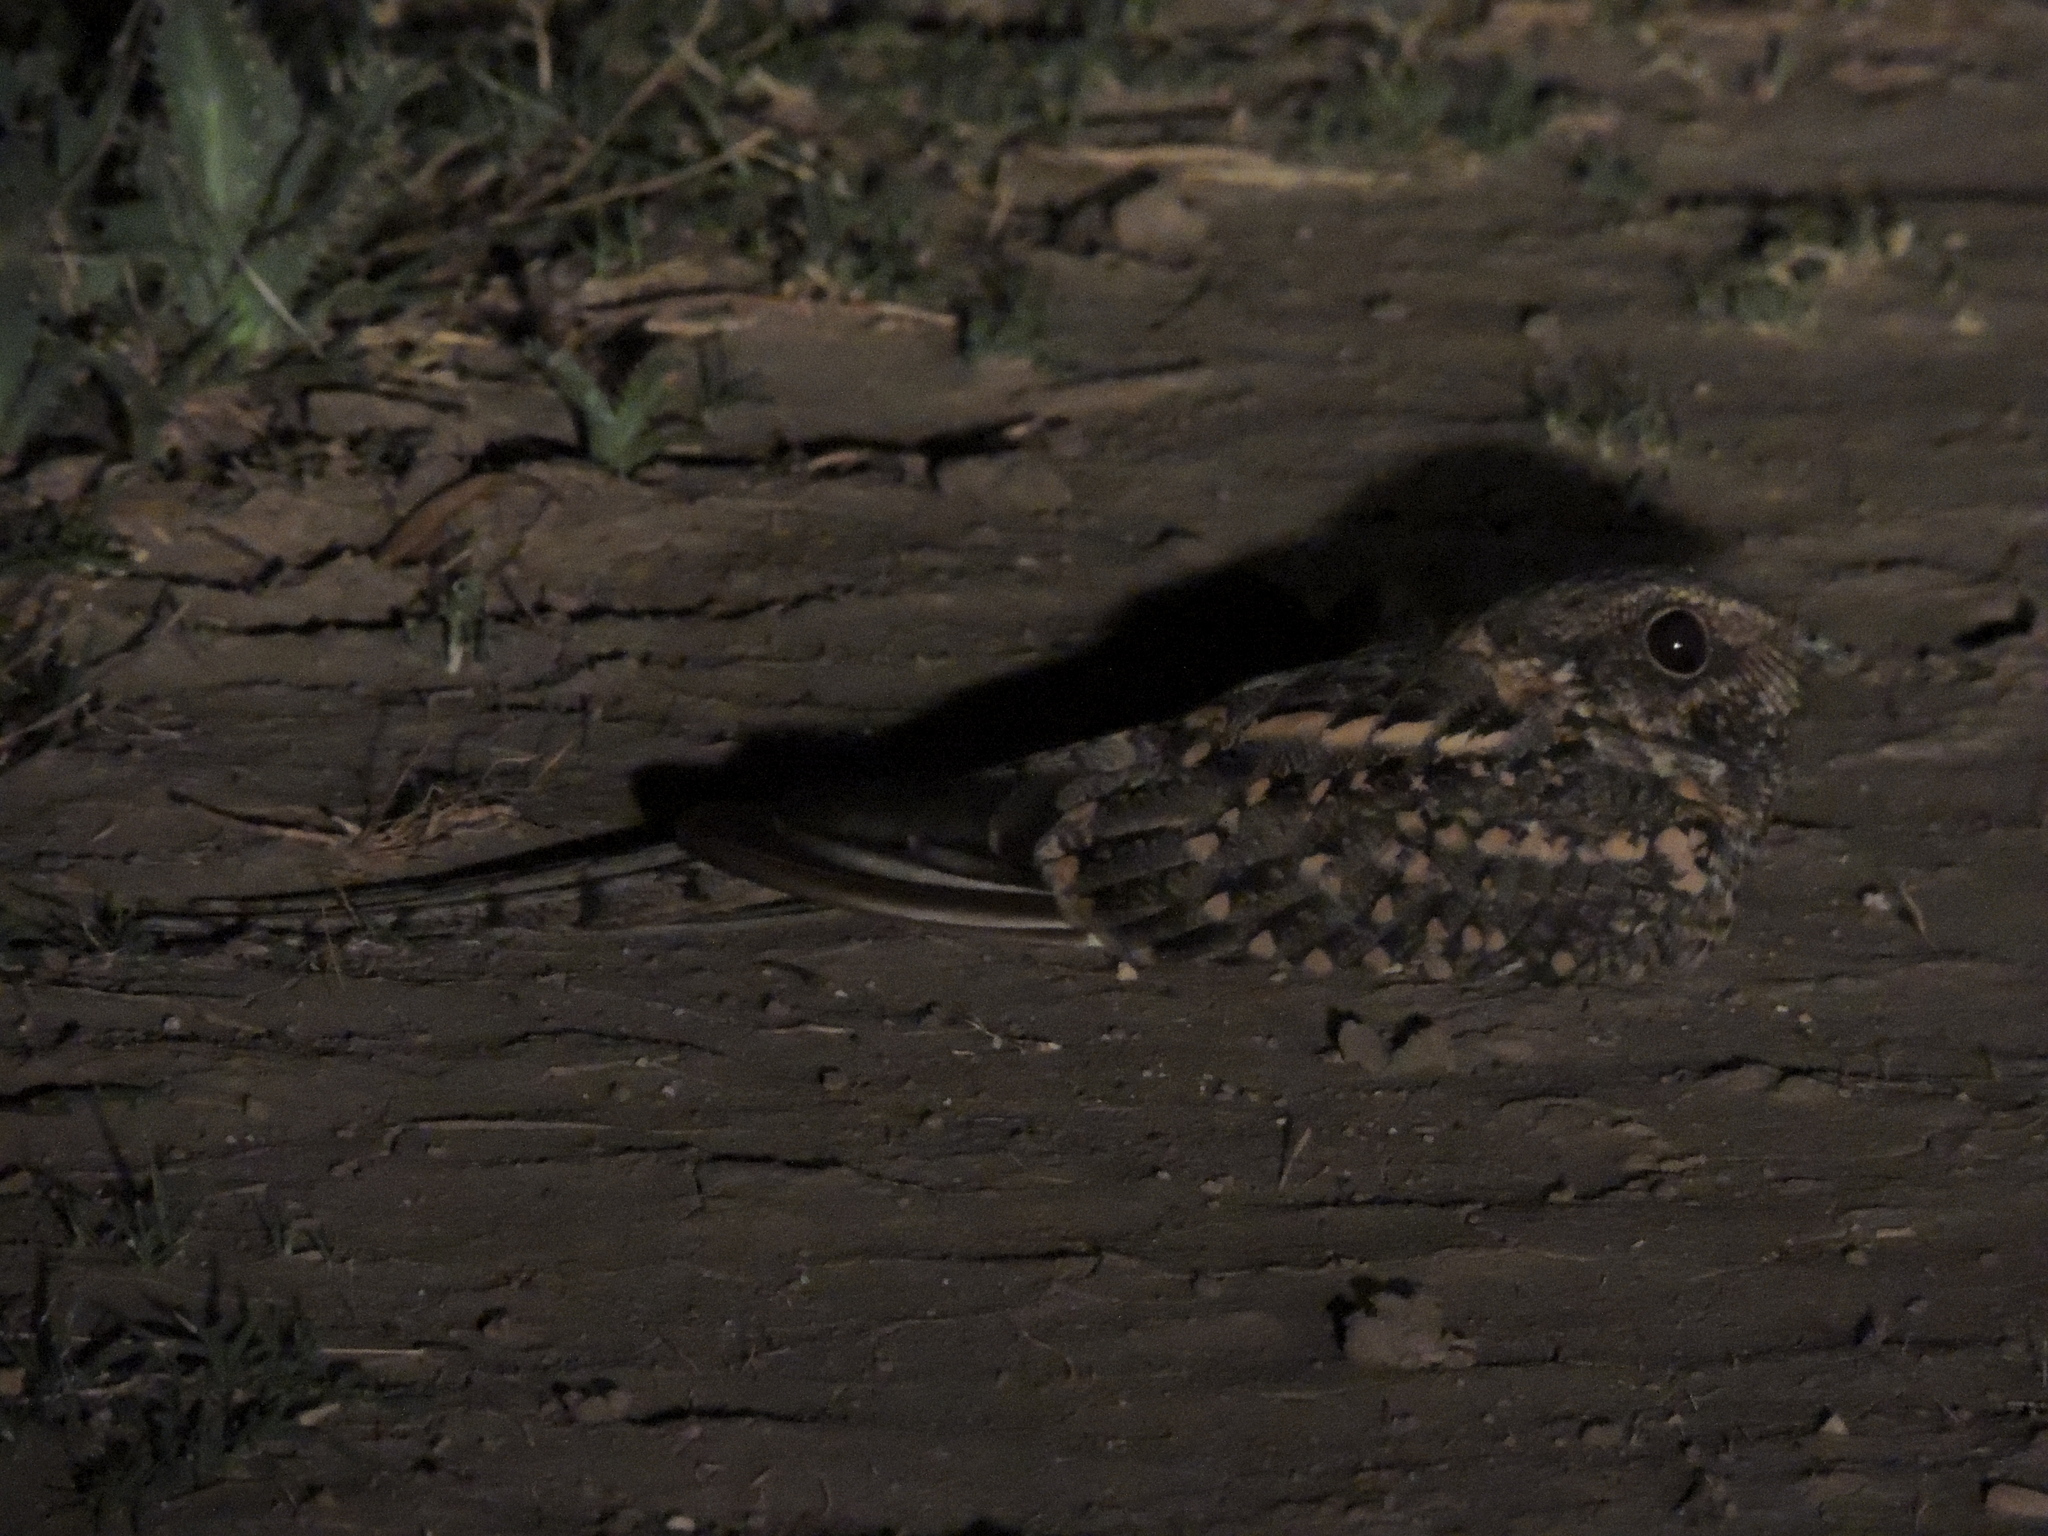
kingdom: Animalia
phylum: Chordata
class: Aves
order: Caprimulgiformes
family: Caprimulgidae
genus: Hydropsalis
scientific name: Hydropsalis torquata
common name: Scissor-tailed nightjar
